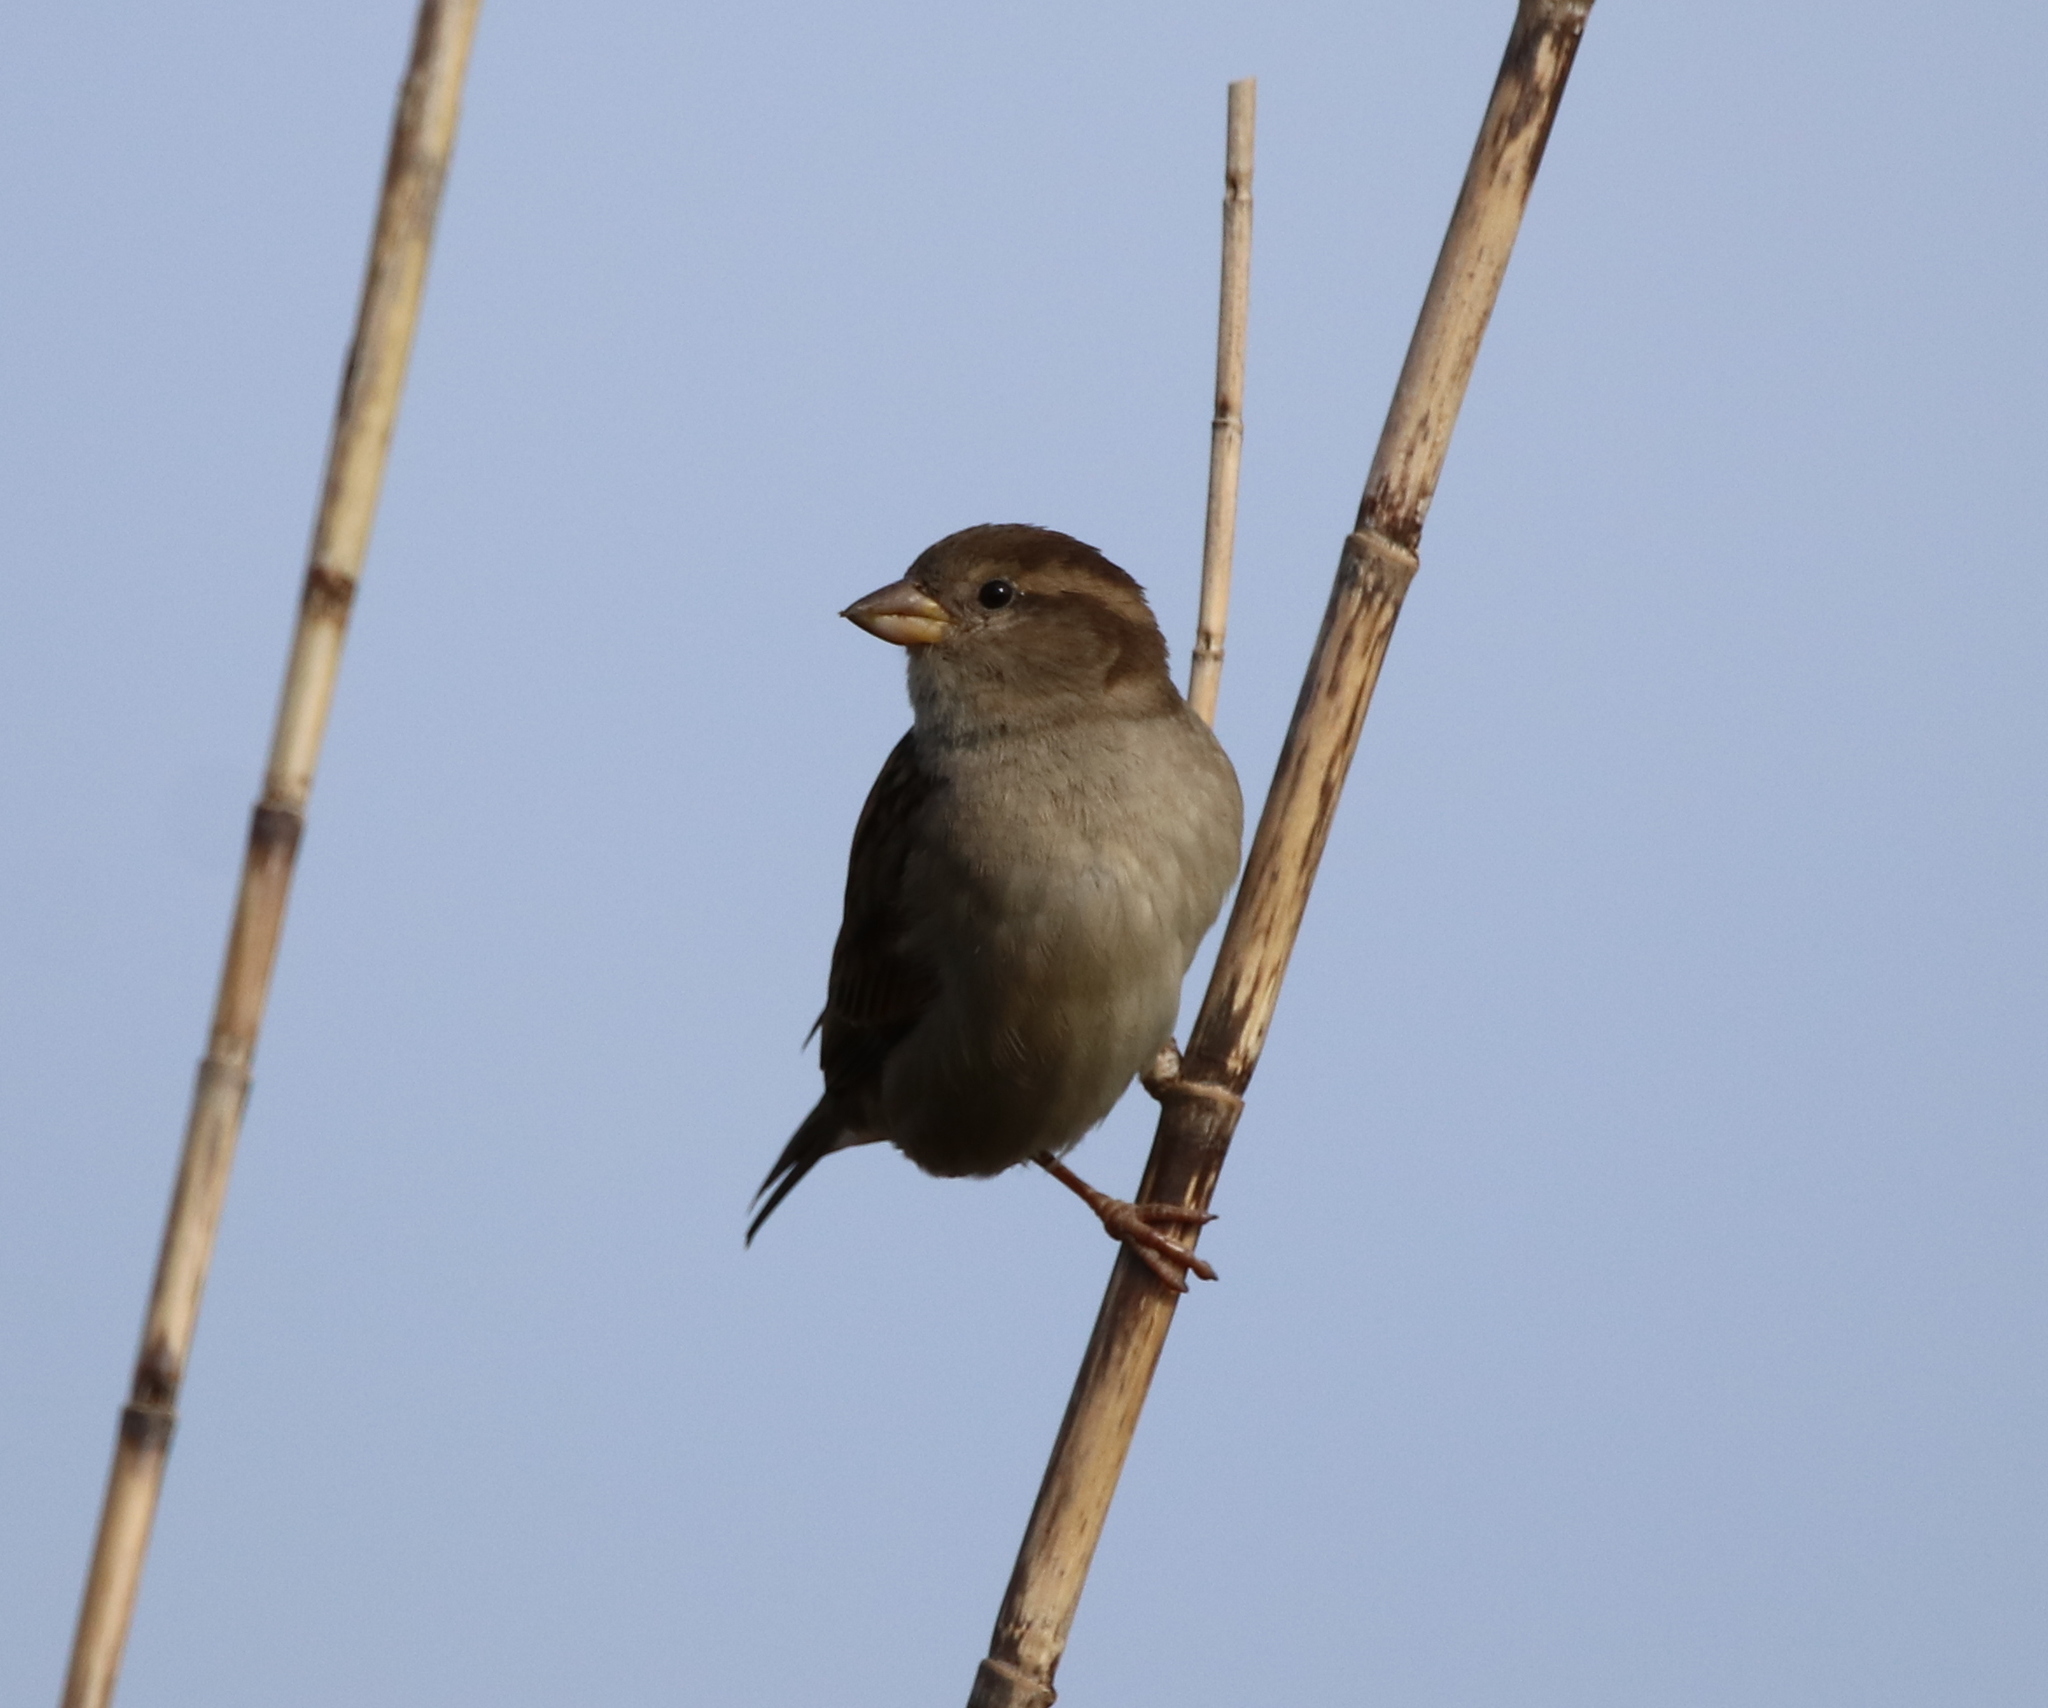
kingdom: Animalia
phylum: Chordata
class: Aves
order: Passeriformes
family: Passeridae
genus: Passer
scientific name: Passer domesticus
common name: House sparrow
